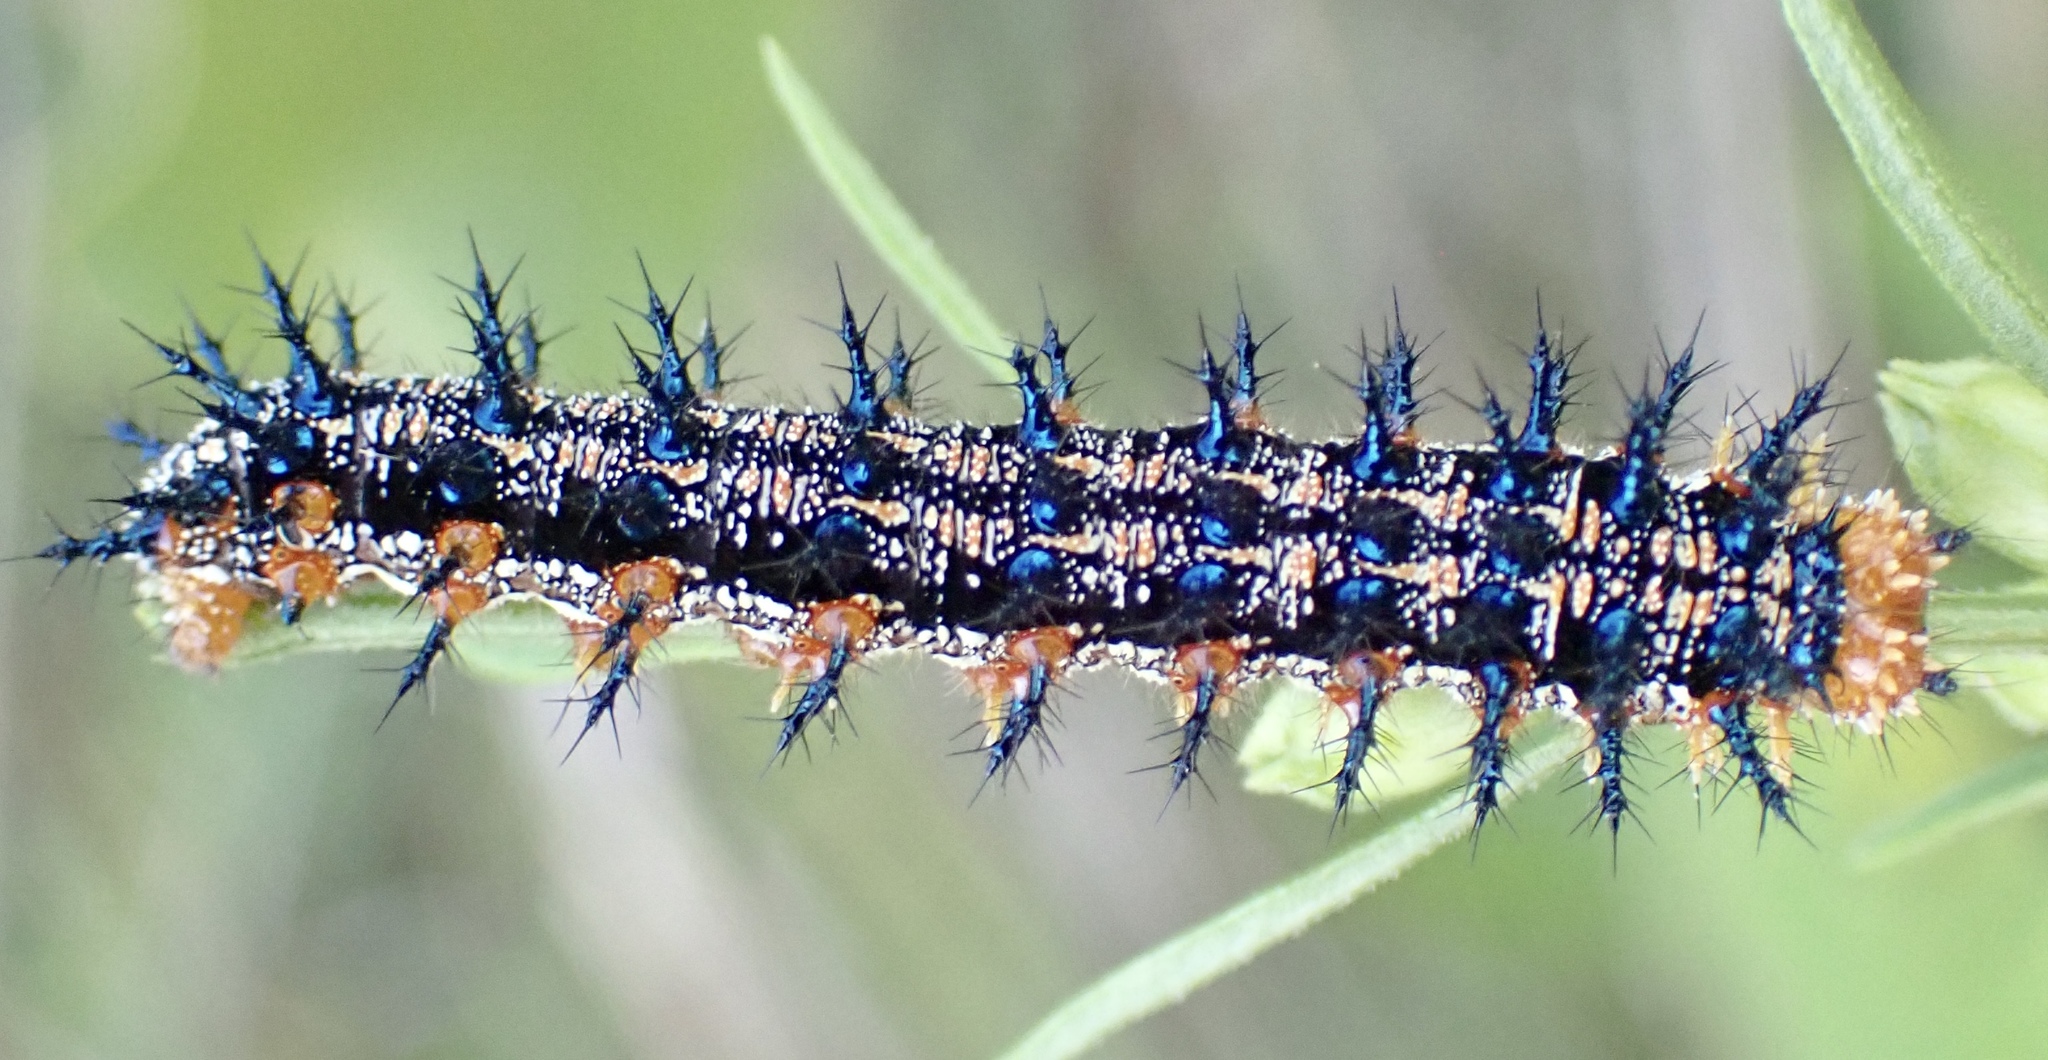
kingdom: Animalia
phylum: Arthropoda
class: Insecta
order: Lepidoptera
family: Nymphalidae
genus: Junonia
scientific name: Junonia coenia
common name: Common buckeye
